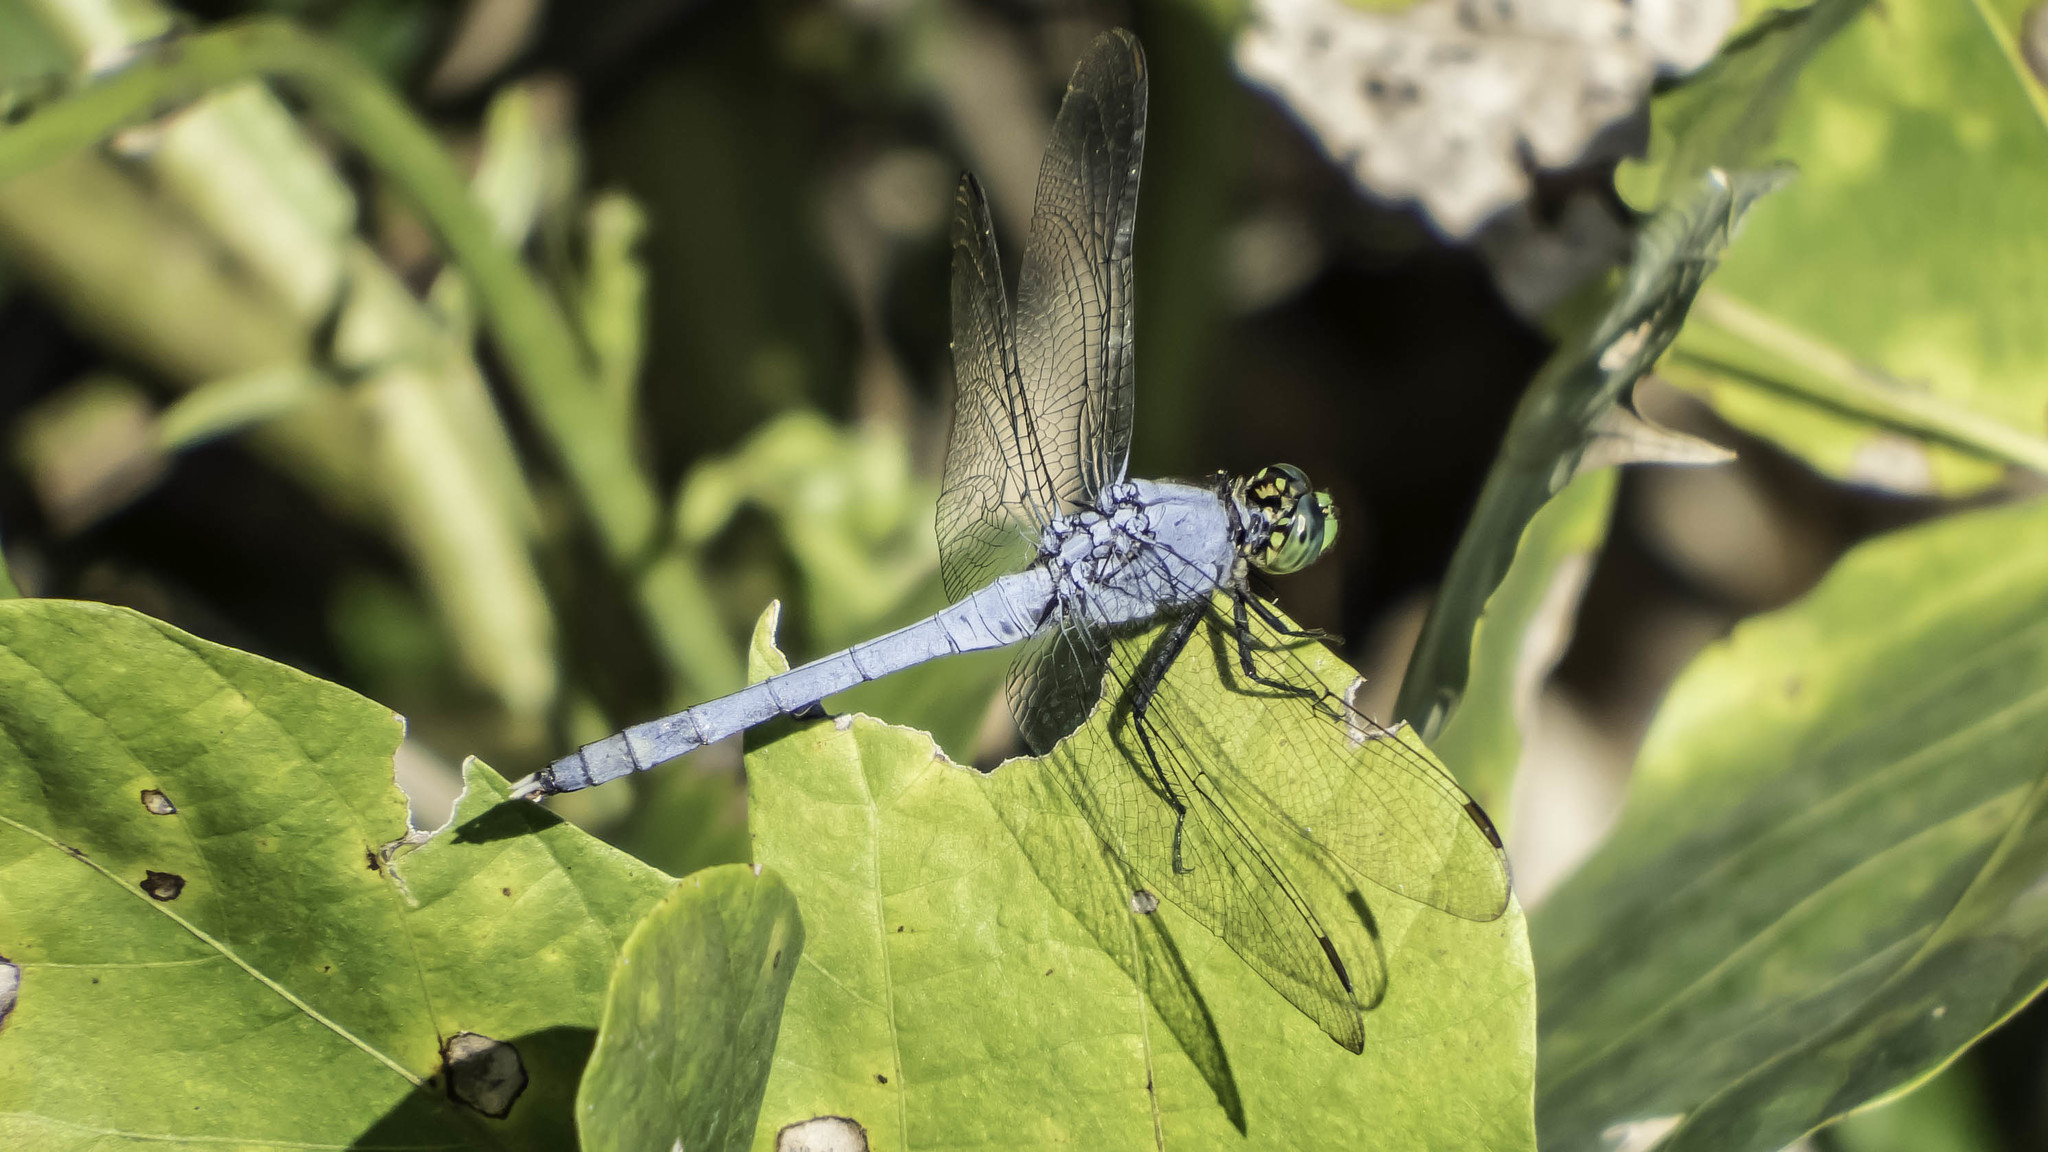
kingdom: Animalia
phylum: Arthropoda
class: Insecta
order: Odonata
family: Libellulidae
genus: Erythemis
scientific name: Erythemis simplicicollis
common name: Eastern pondhawk
